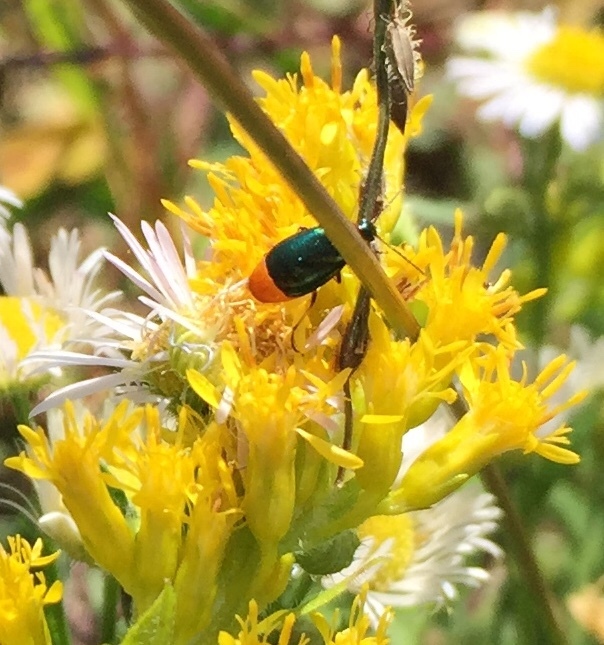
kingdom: Animalia
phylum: Arthropoda
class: Insecta
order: Coleoptera
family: Carabidae
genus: Lebia
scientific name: Lebia viridipennis
